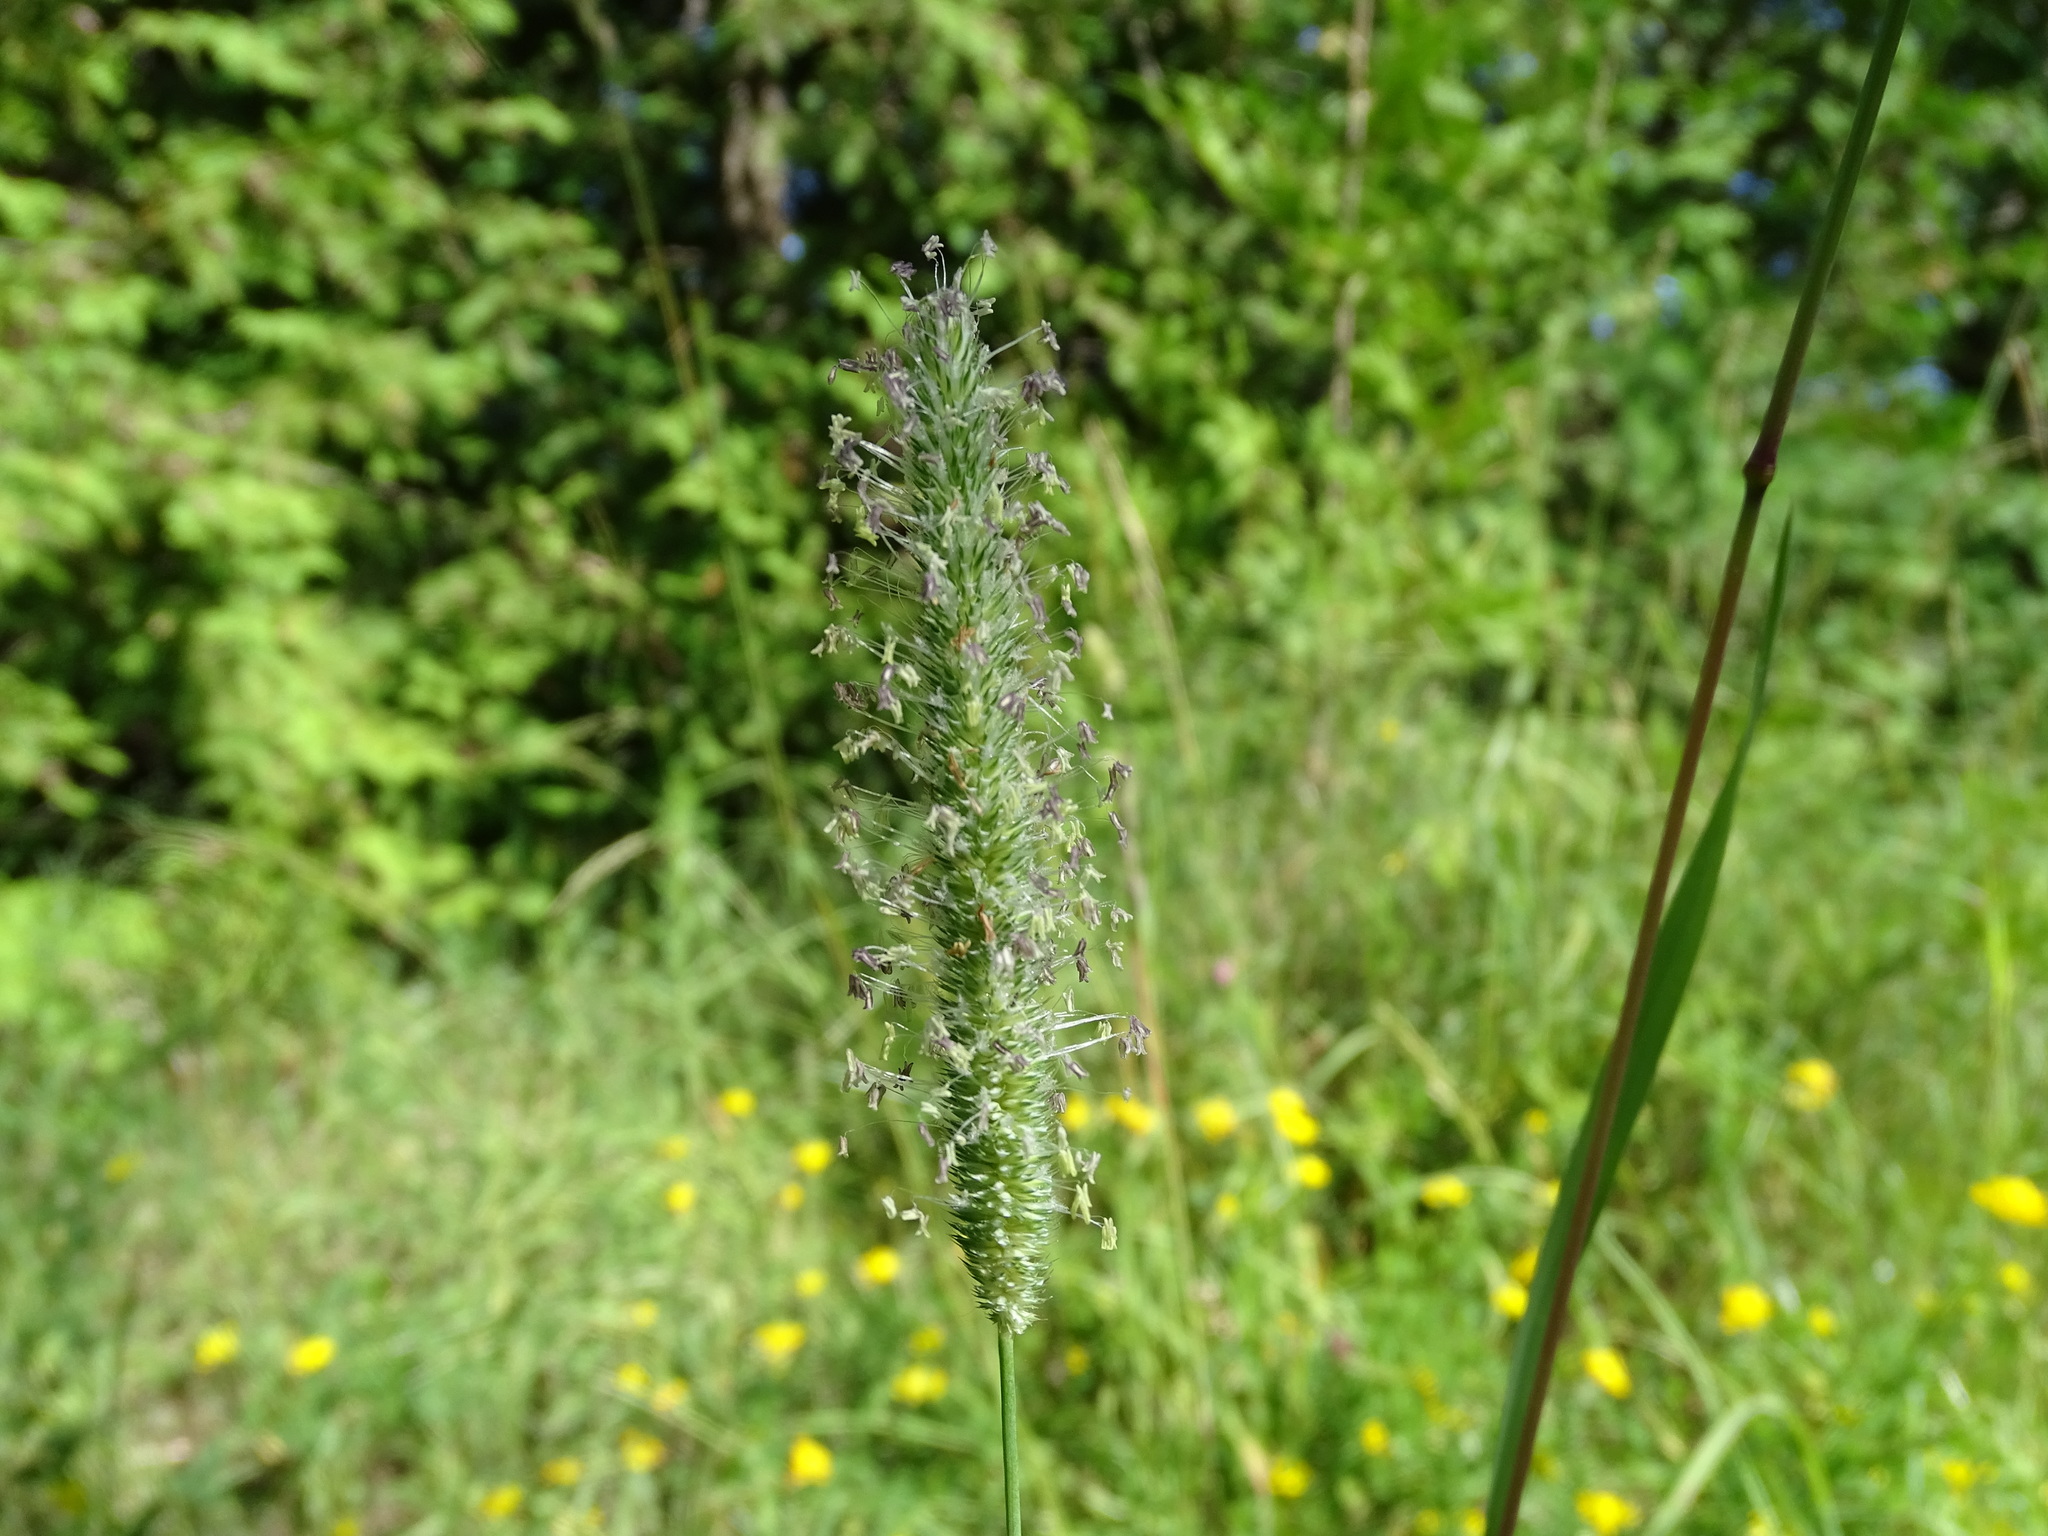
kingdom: Plantae
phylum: Tracheophyta
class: Liliopsida
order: Poales
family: Poaceae
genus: Phleum
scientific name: Phleum pratense
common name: Timothy grass
